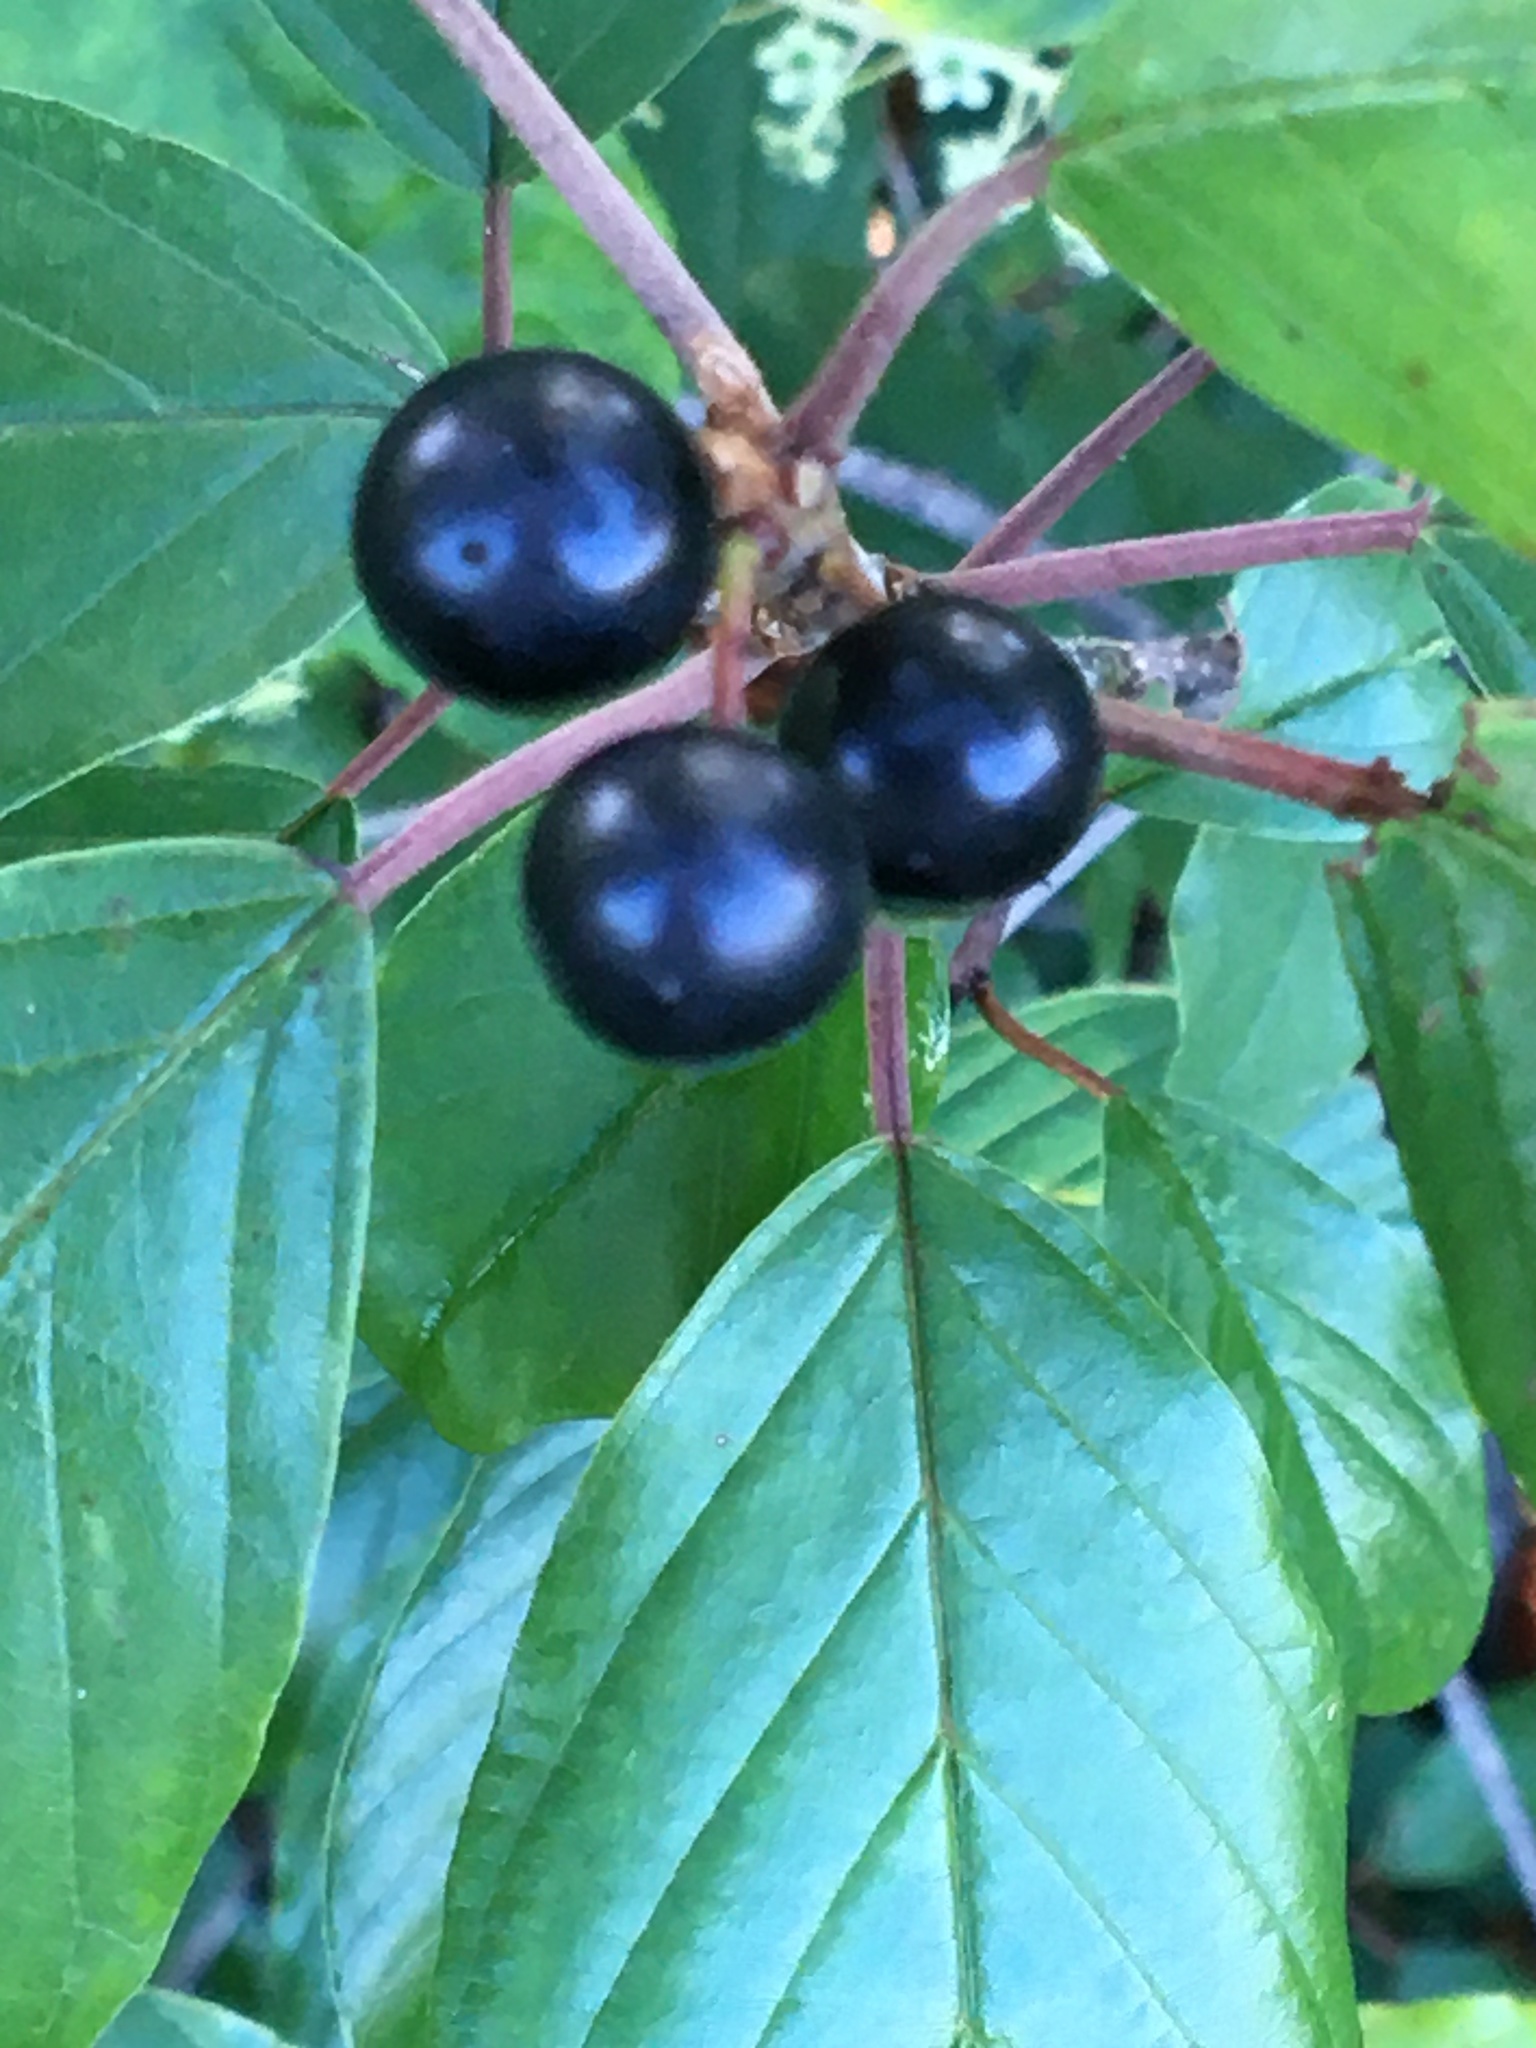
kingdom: Plantae
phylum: Tracheophyta
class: Magnoliopsida
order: Rosales
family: Rhamnaceae
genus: Frangula
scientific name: Frangula alnus
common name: Alder buckthorn
